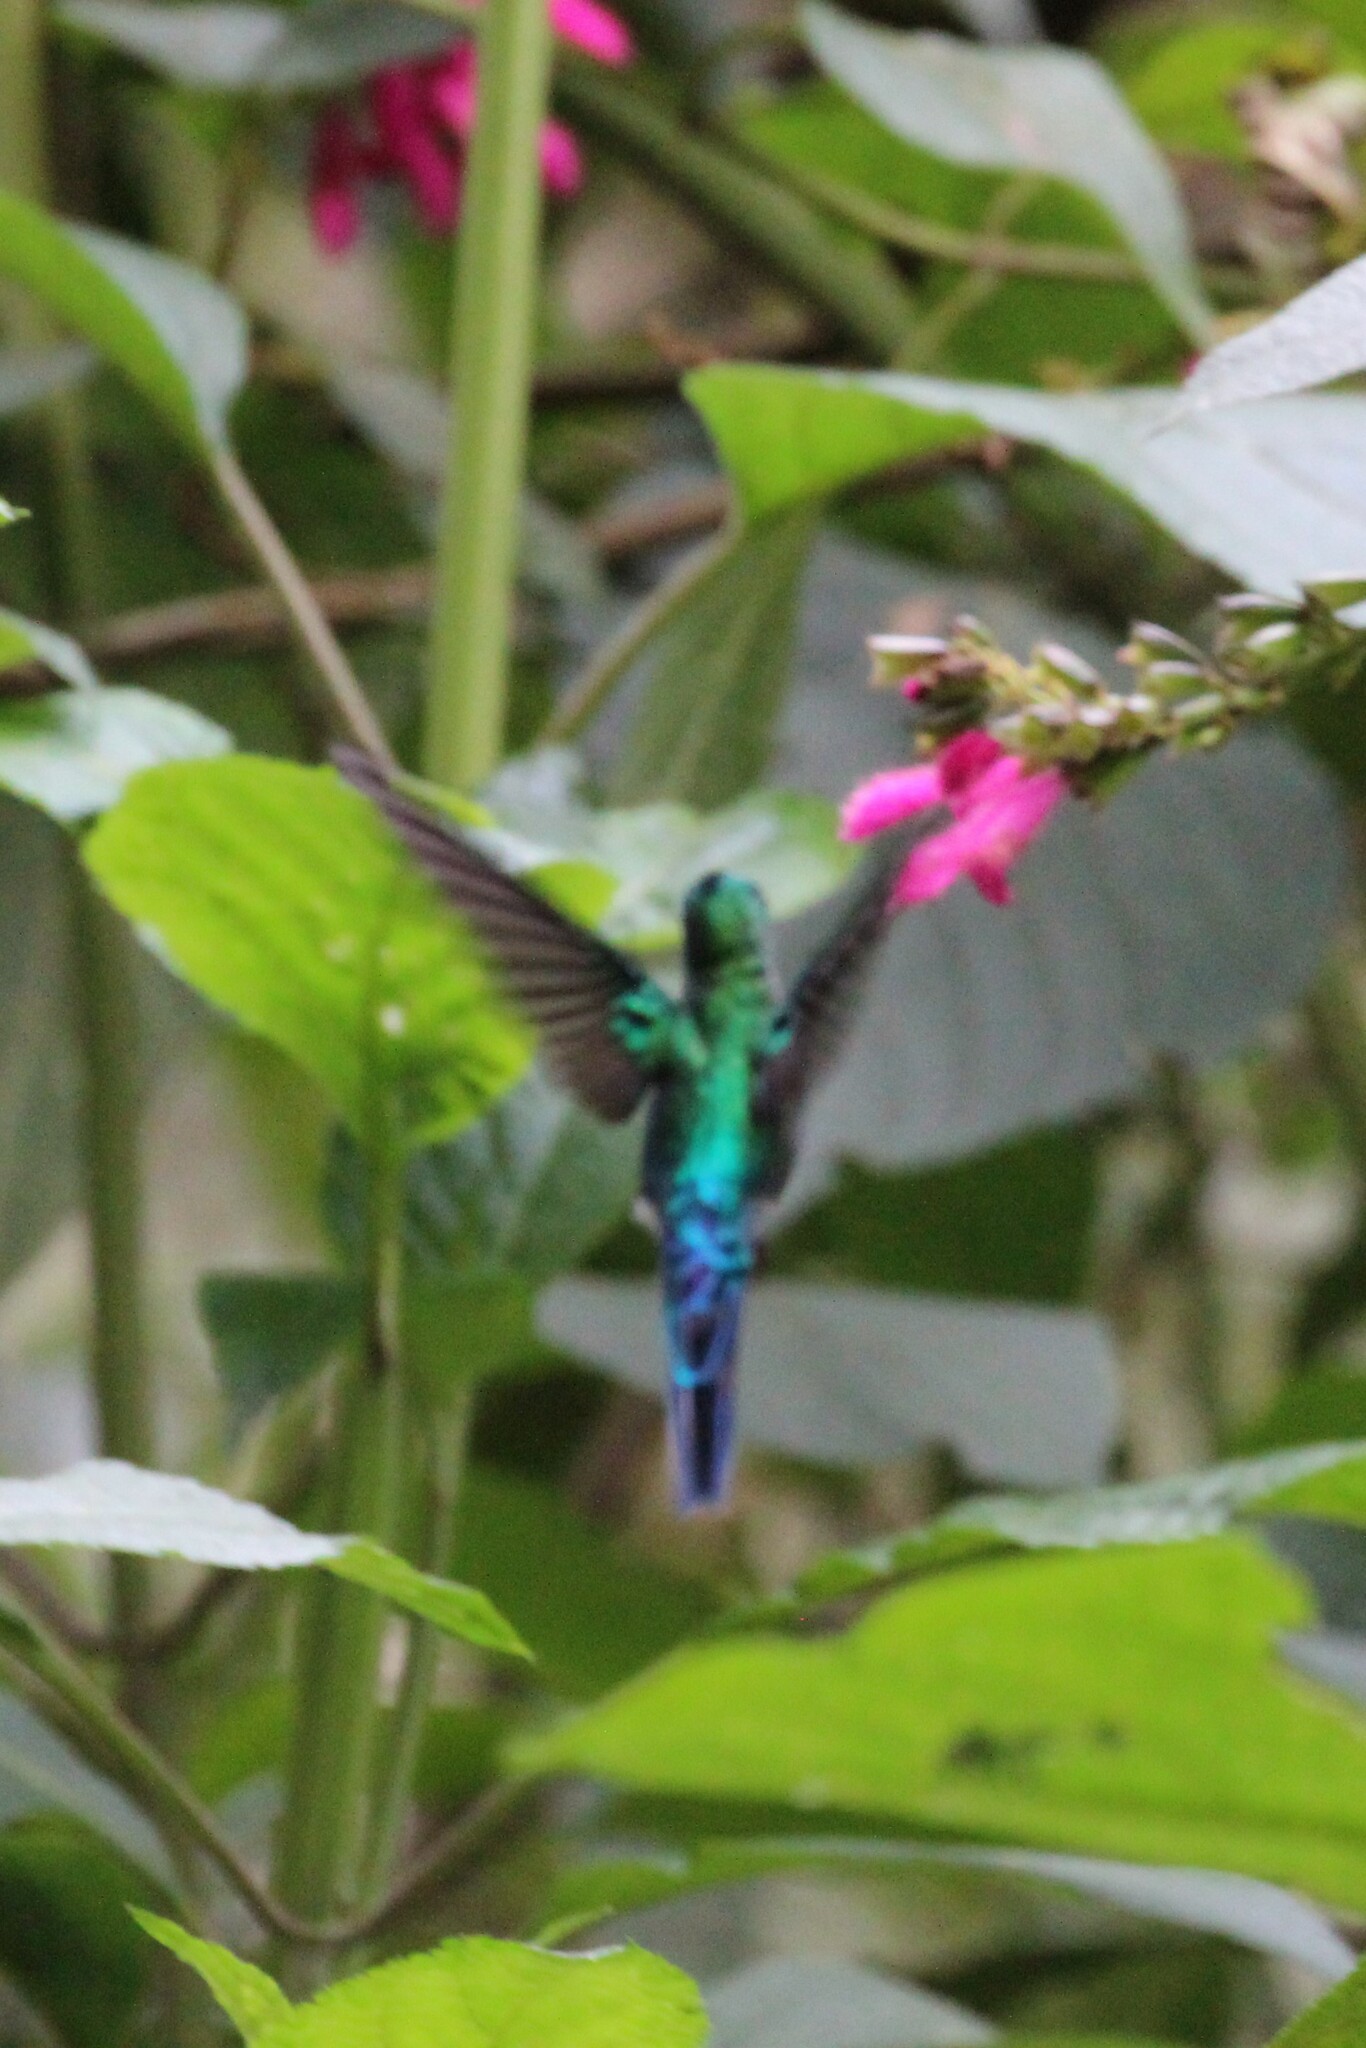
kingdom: Animalia
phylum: Chordata
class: Aves
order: Apodiformes
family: Trochilidae
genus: Aglaiocercus
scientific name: Aglaiocercus kingii
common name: Long-tailed sylph
